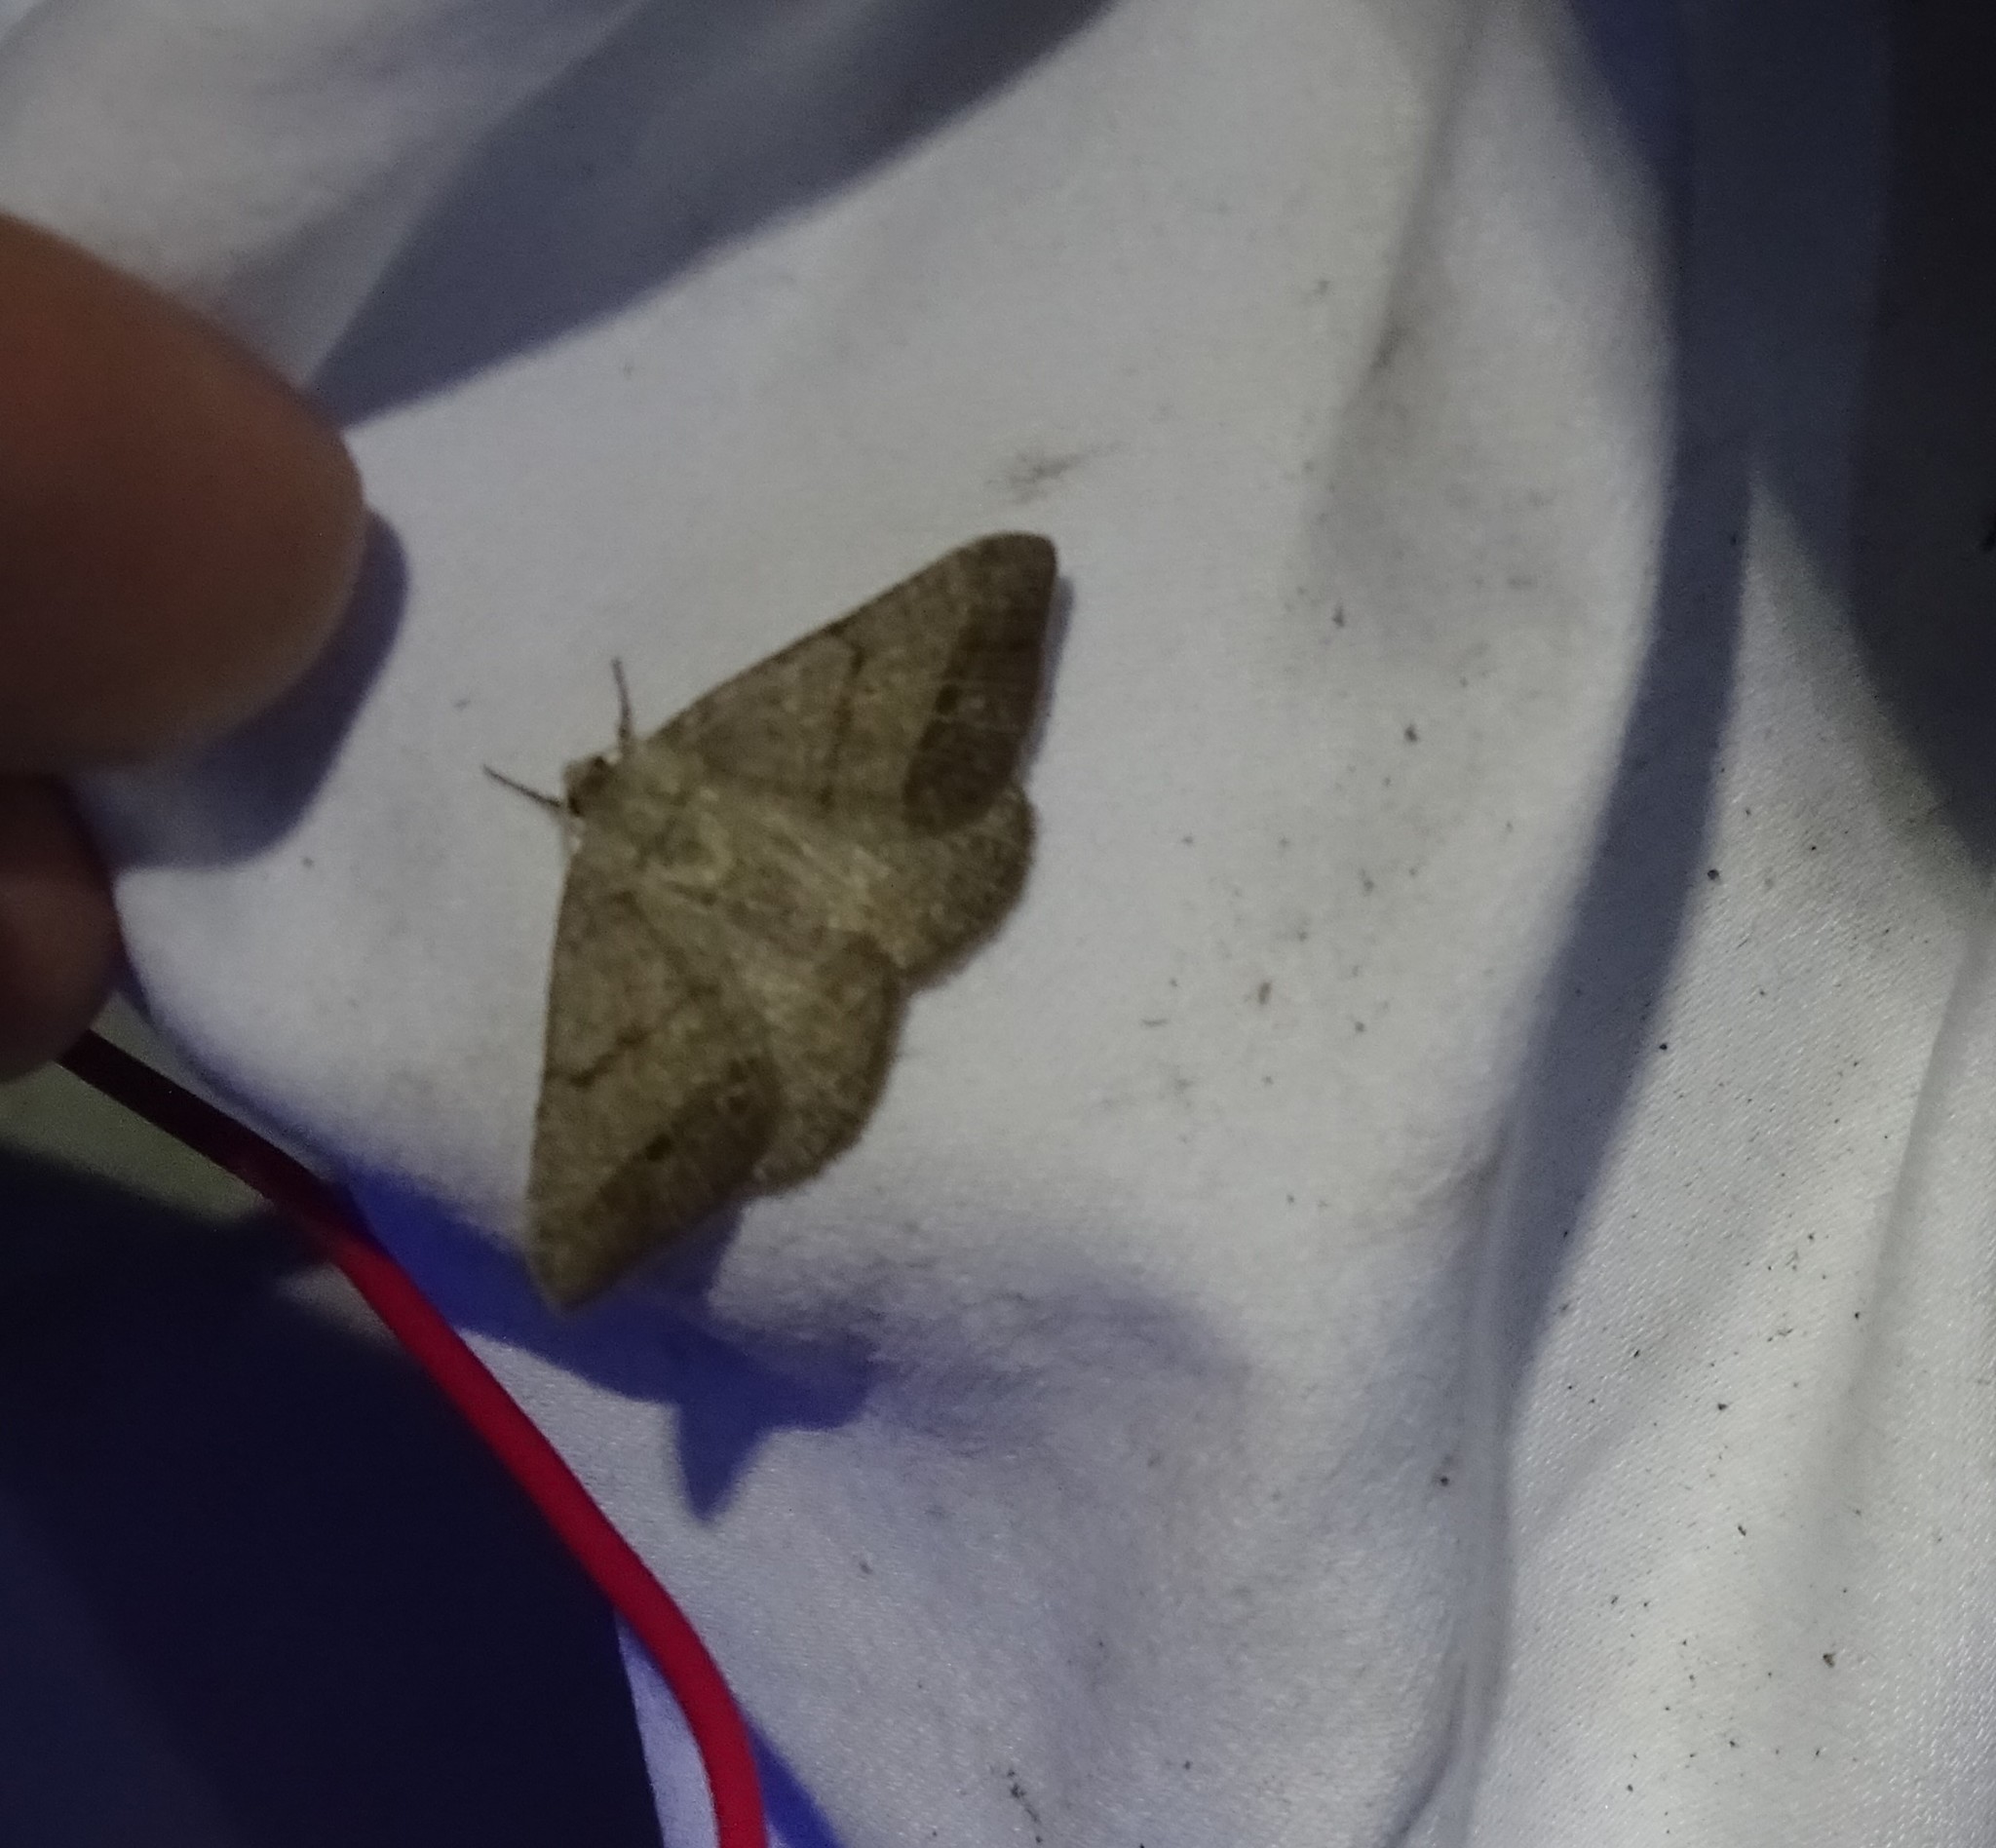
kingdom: Animalia
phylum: Arthropoda
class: Insecta
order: Lepidoptera
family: Geometridae
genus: Isturgia
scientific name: Isturgia dislocaria
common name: Pale-viened enconista
